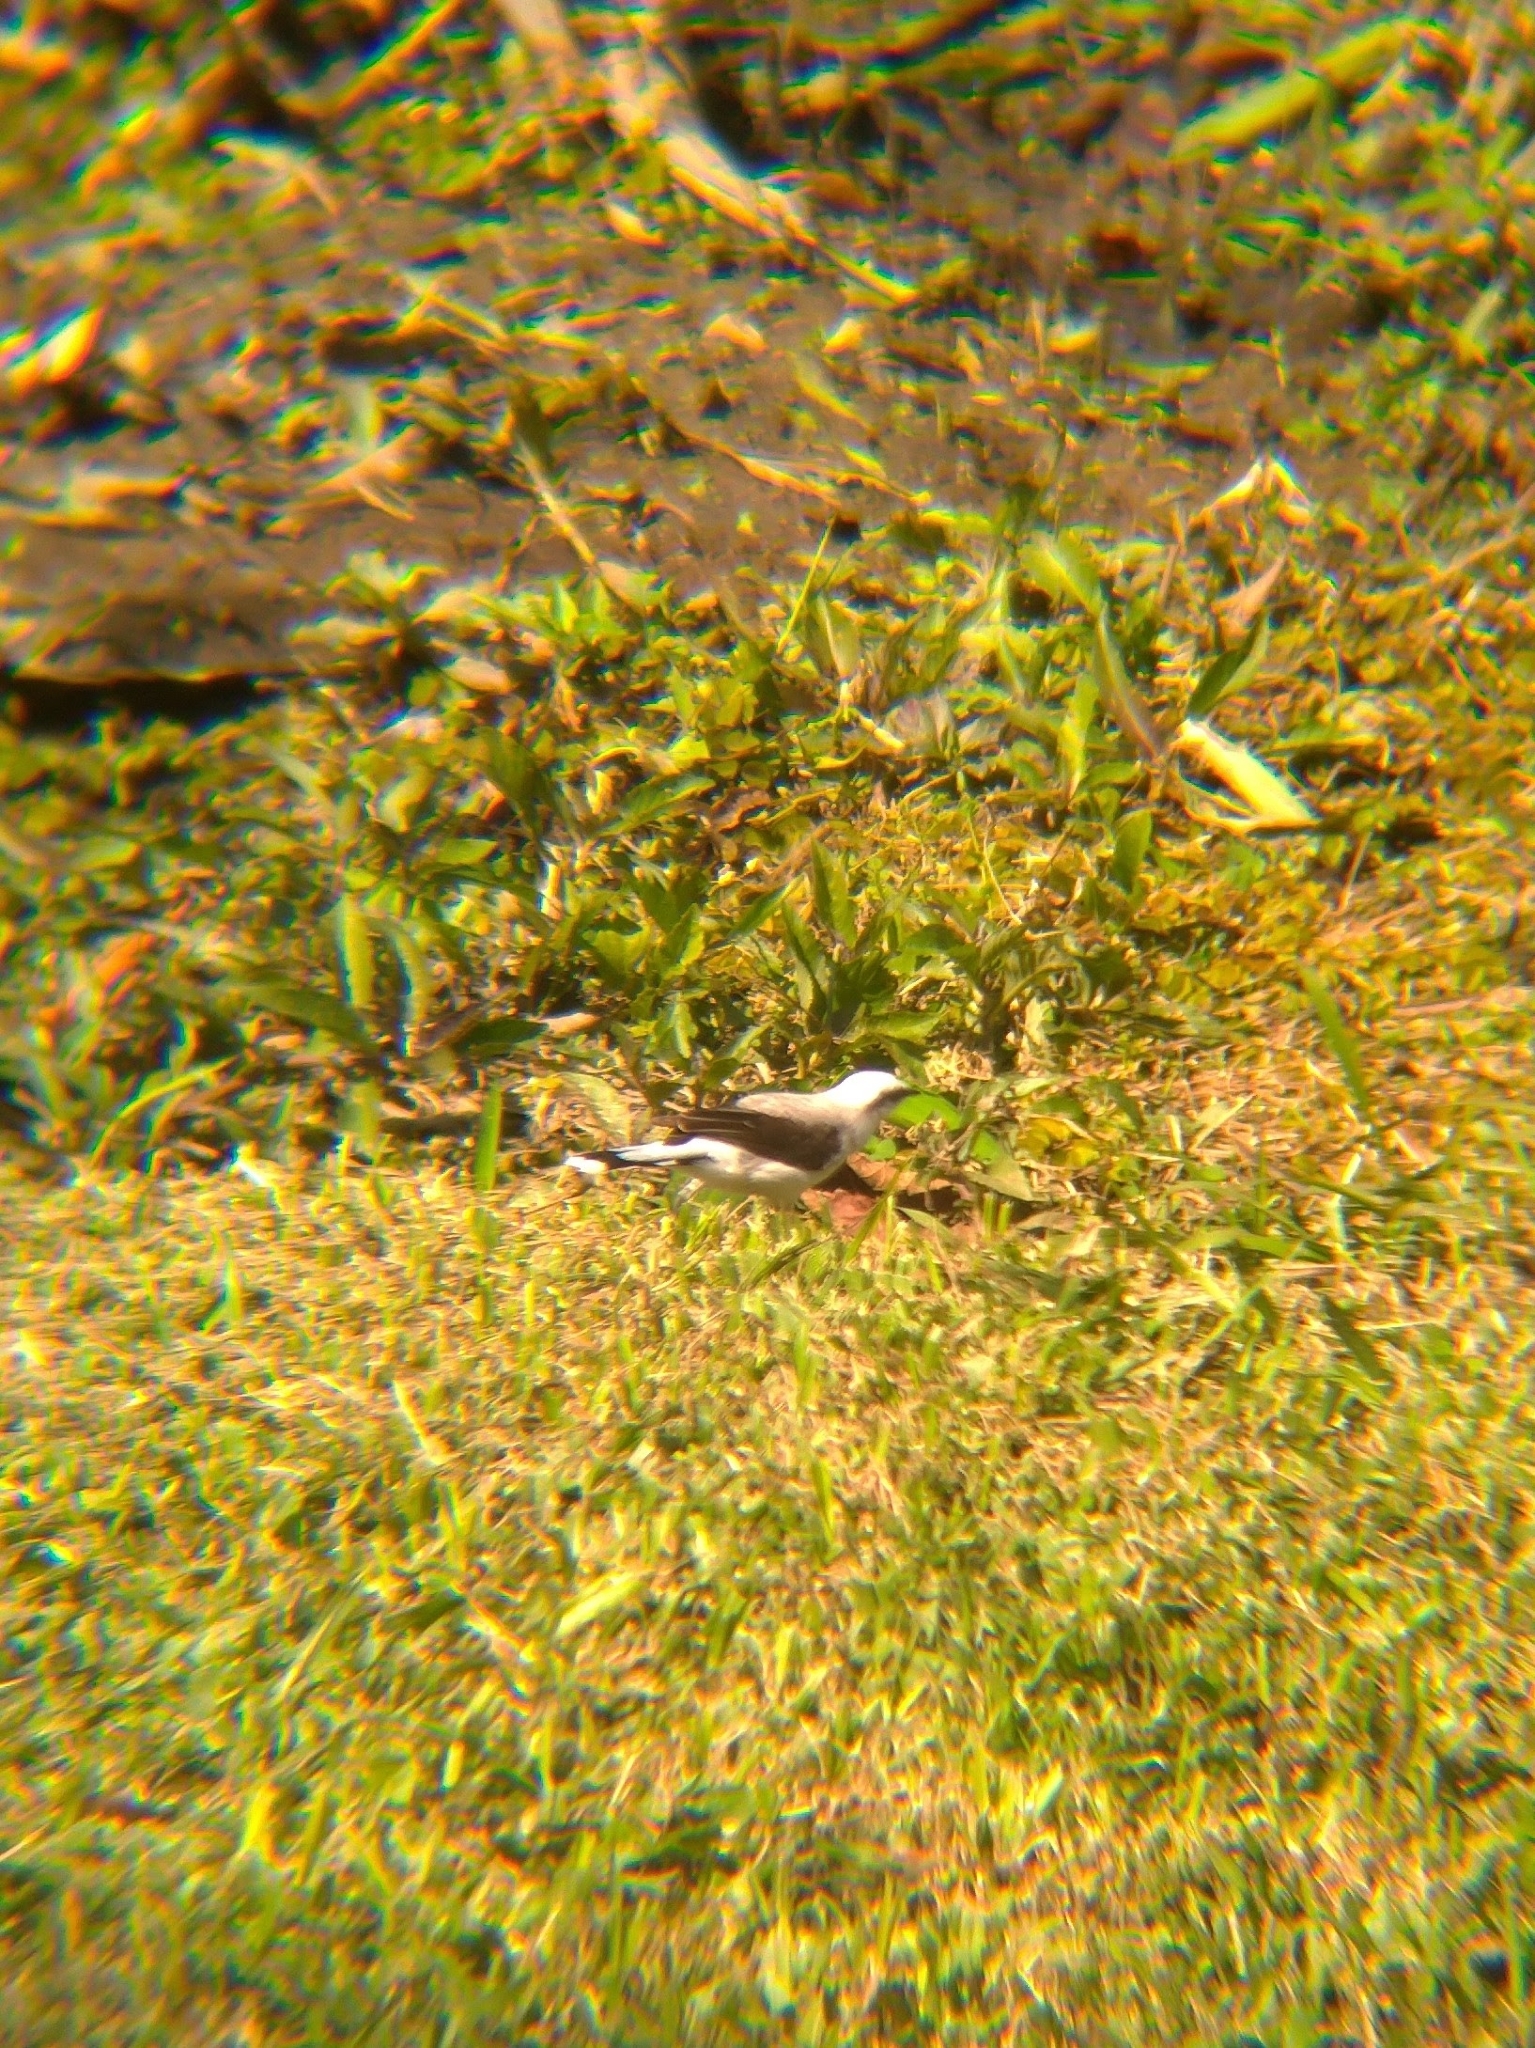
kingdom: Animalia
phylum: Chordata
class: Aves
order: Passeriformes
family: Tyrannidae
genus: Fluvicola
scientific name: Fluvicola nengeta
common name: Masked water tyrant
